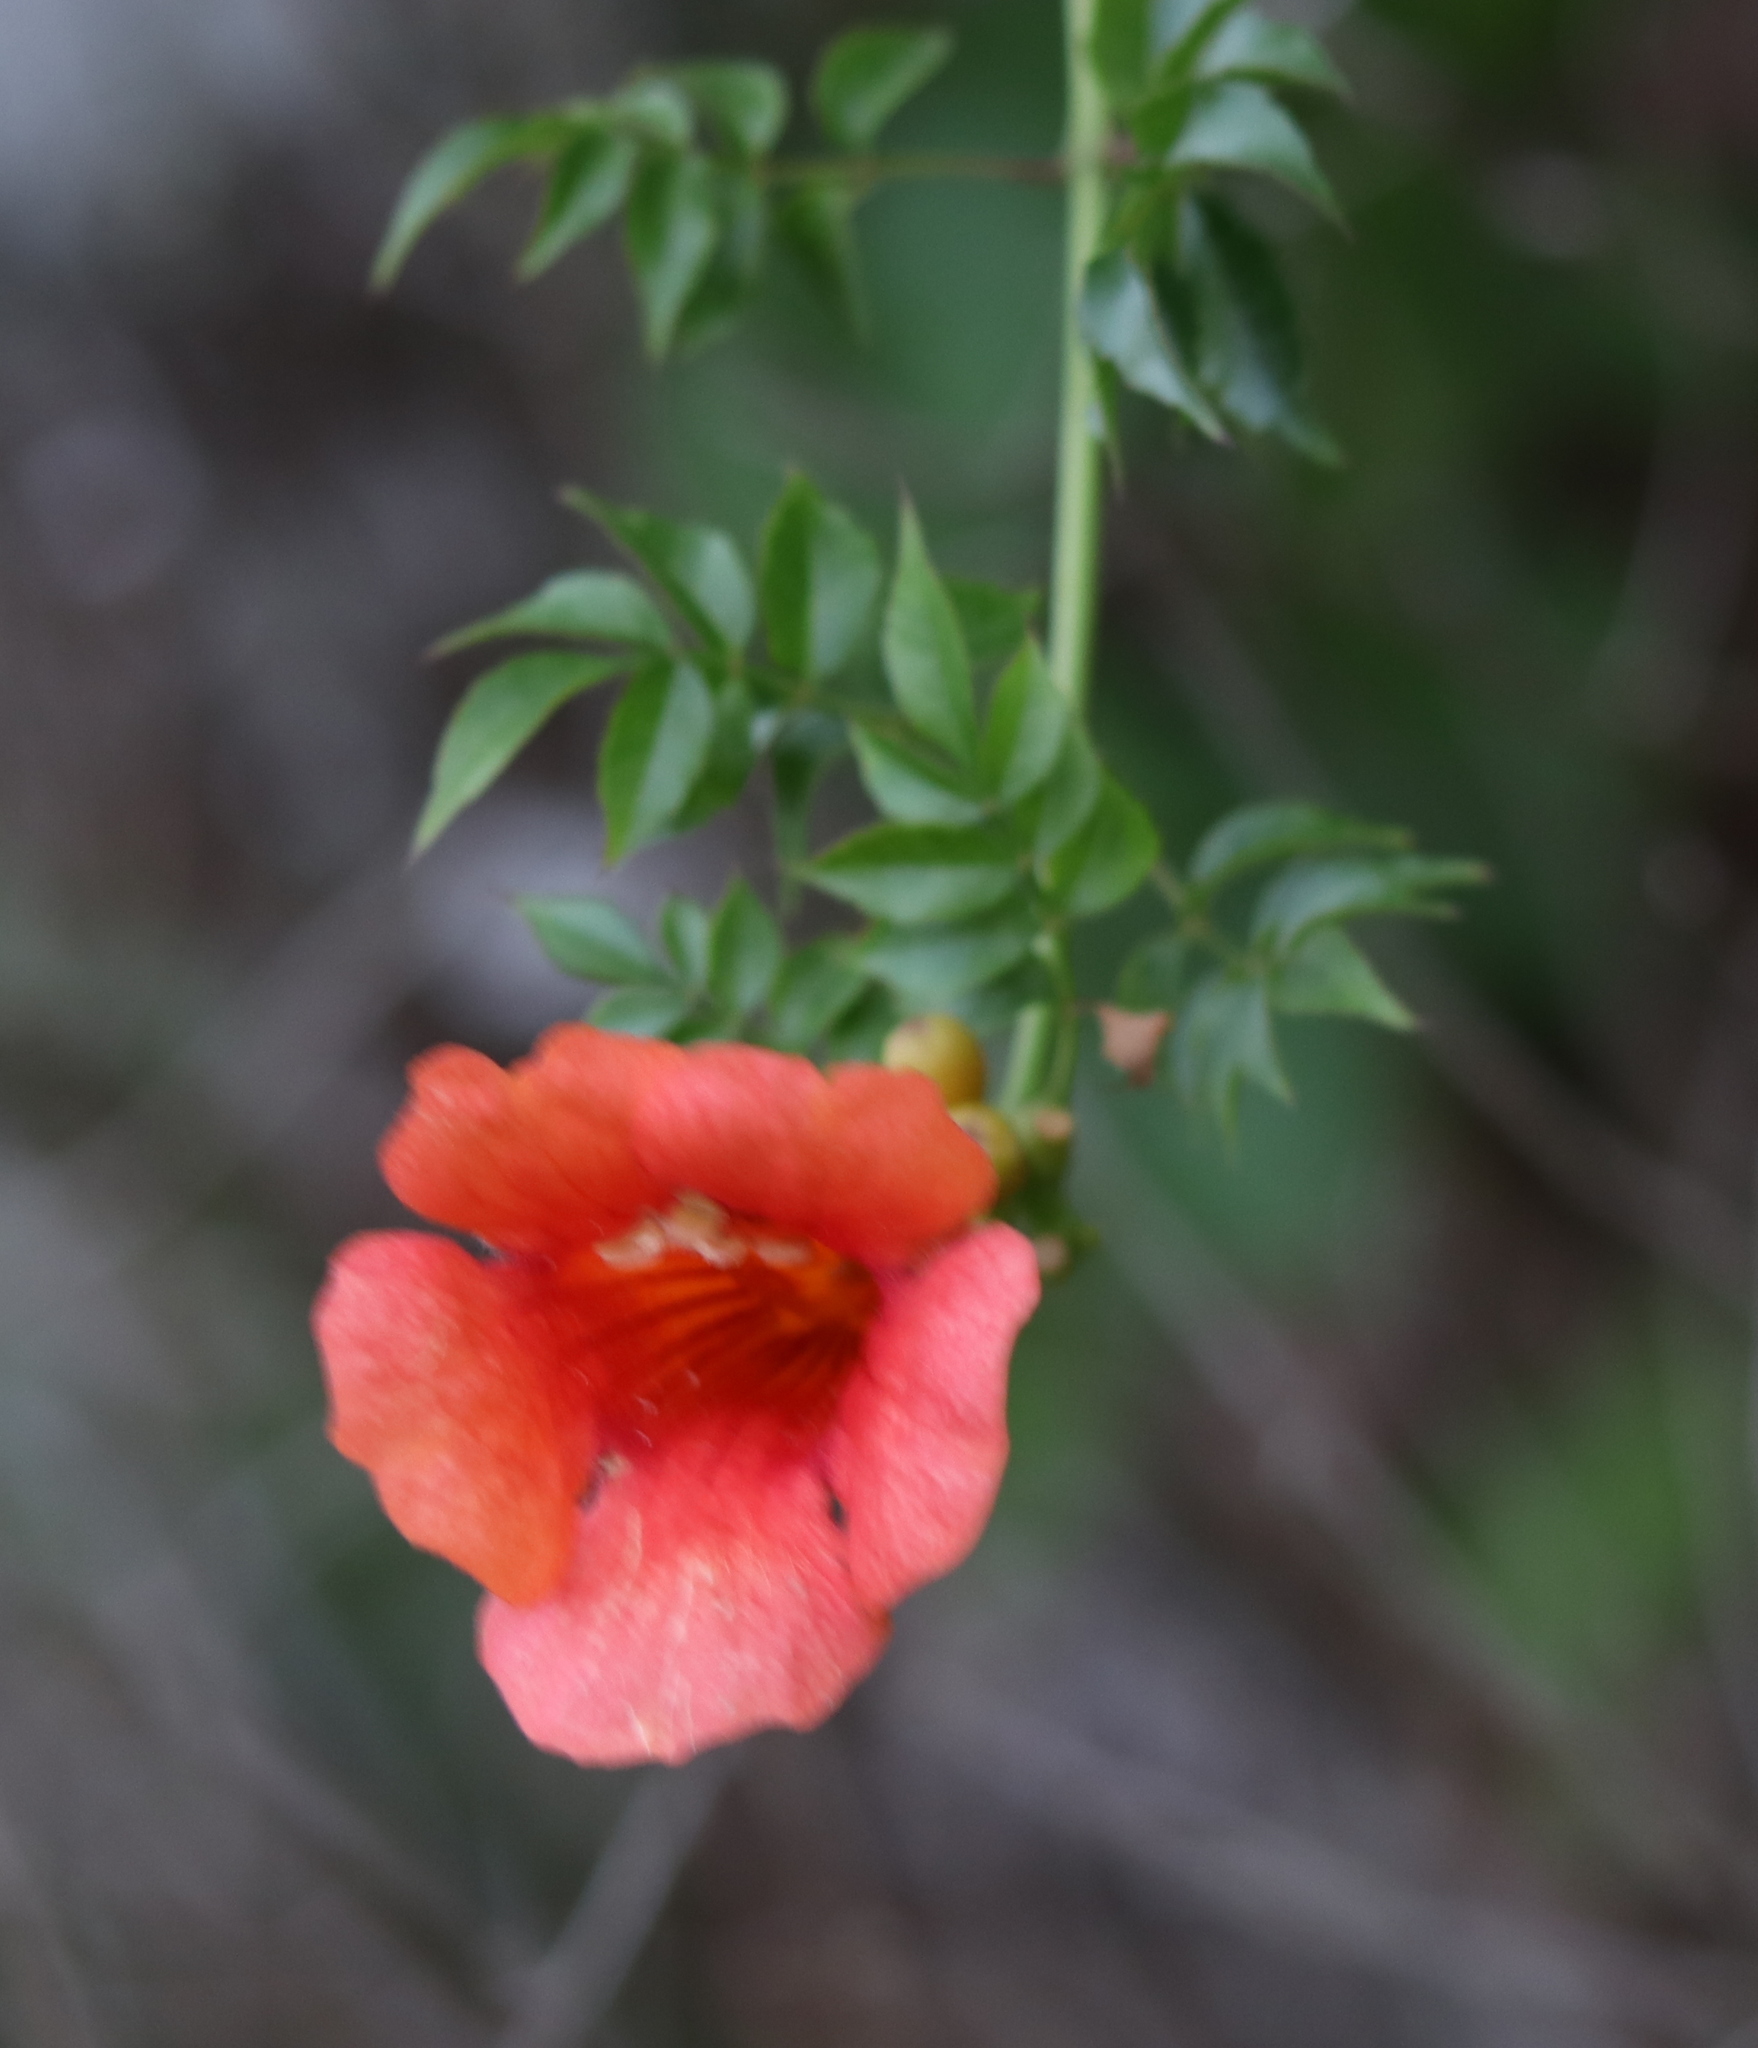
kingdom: Plantae
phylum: Tracheophyta
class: Magnoliopsida
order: Lamiales
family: Bignoniaceae
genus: Campsis
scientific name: Campsis radicans
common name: Trumpet-creeper
